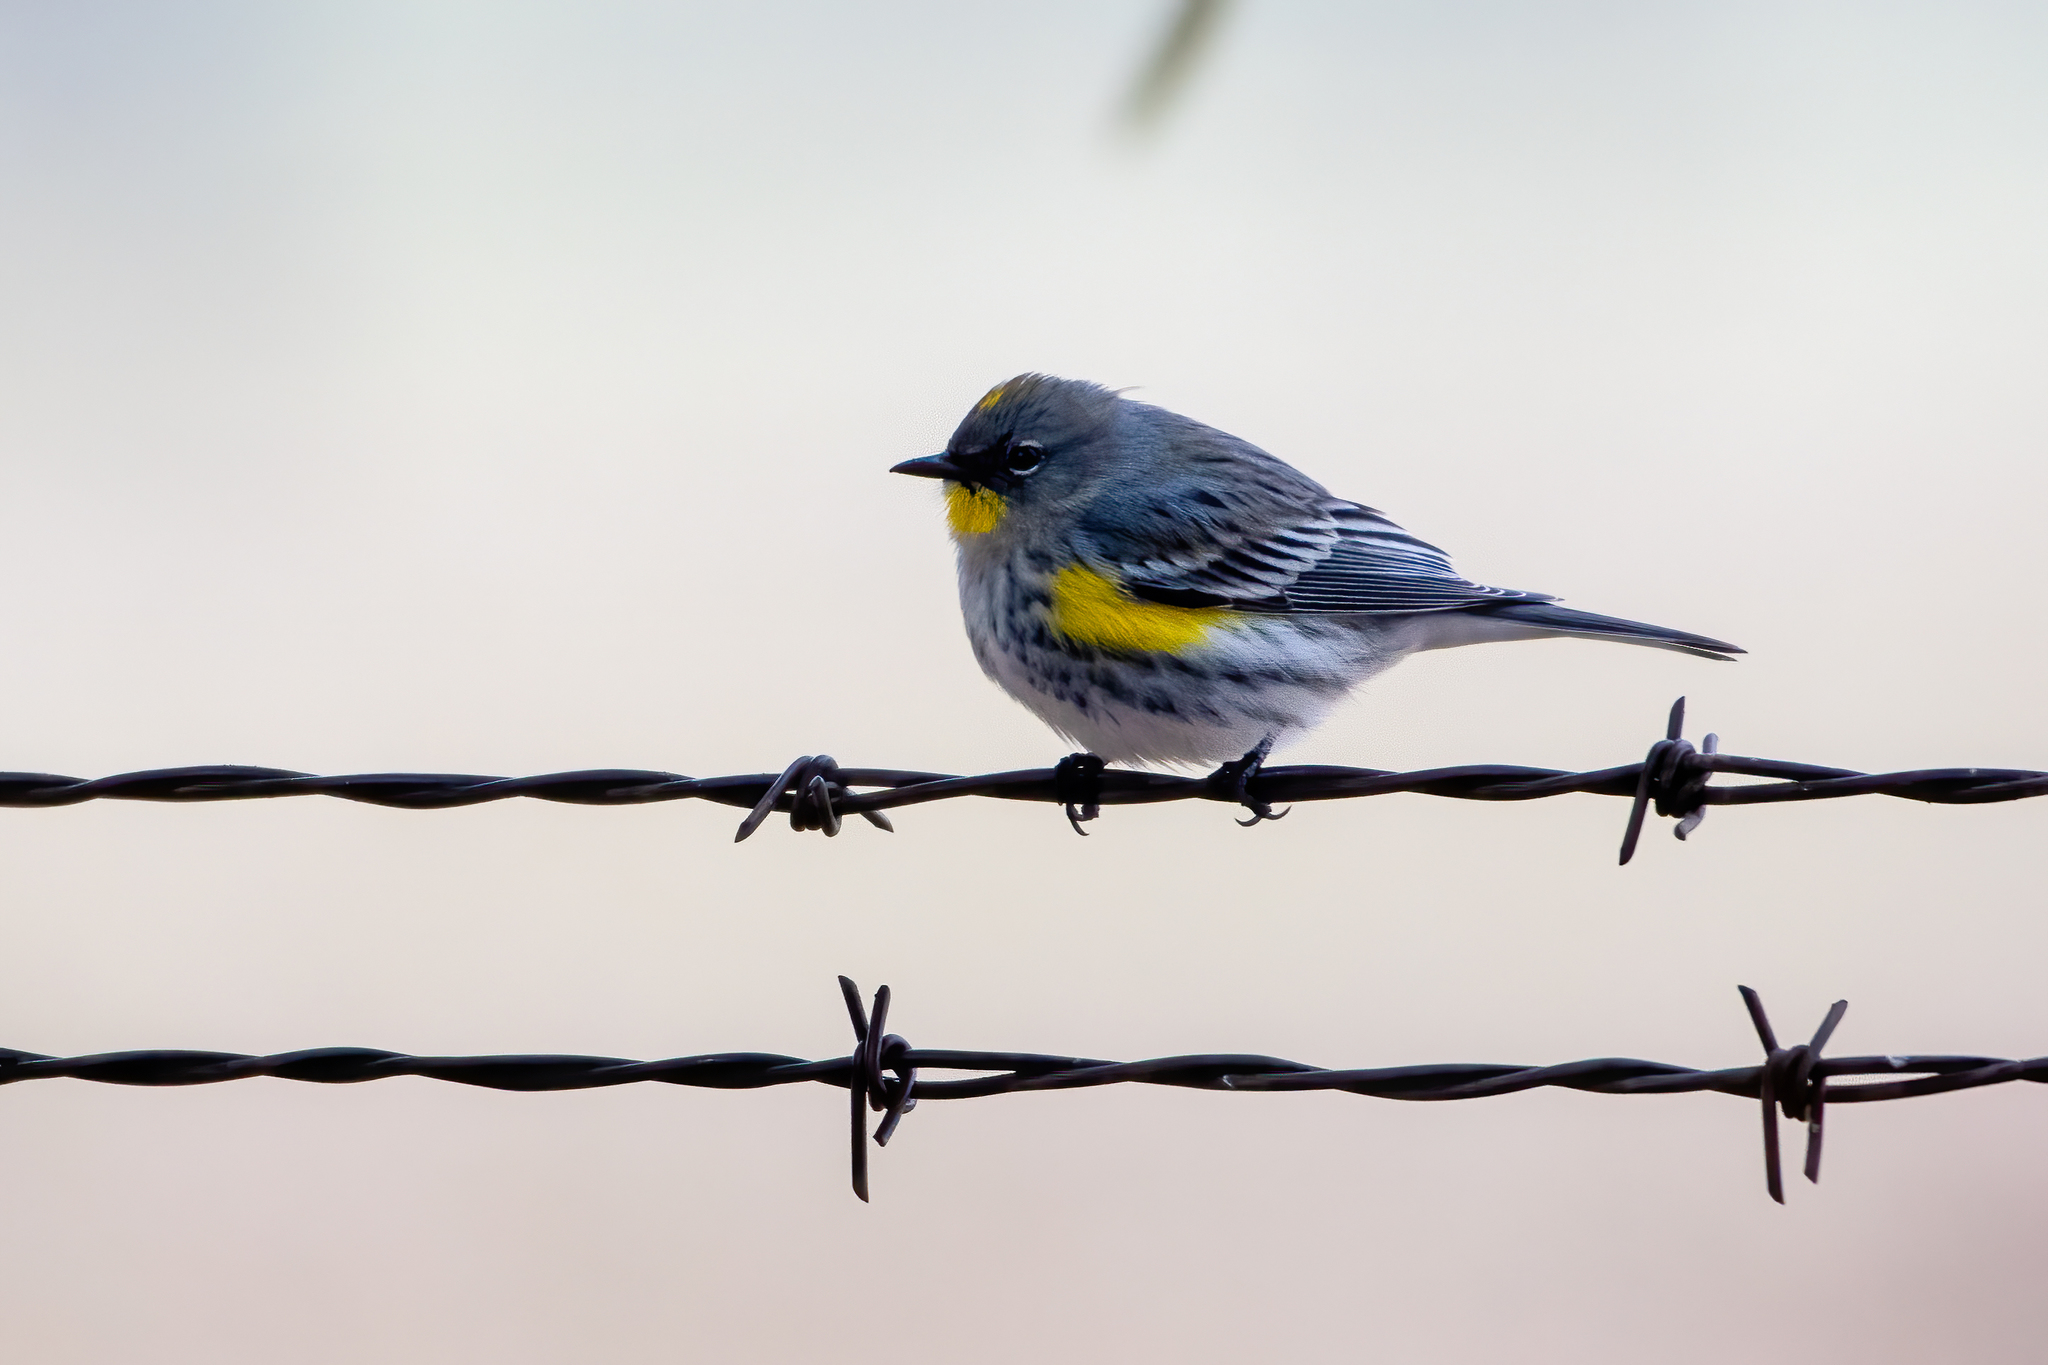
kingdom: Animalia
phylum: Chordata
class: Aves
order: Passeriformes
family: Parulidae
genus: Setophaga
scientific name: Setophaga coronata
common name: Myrtle warbler
